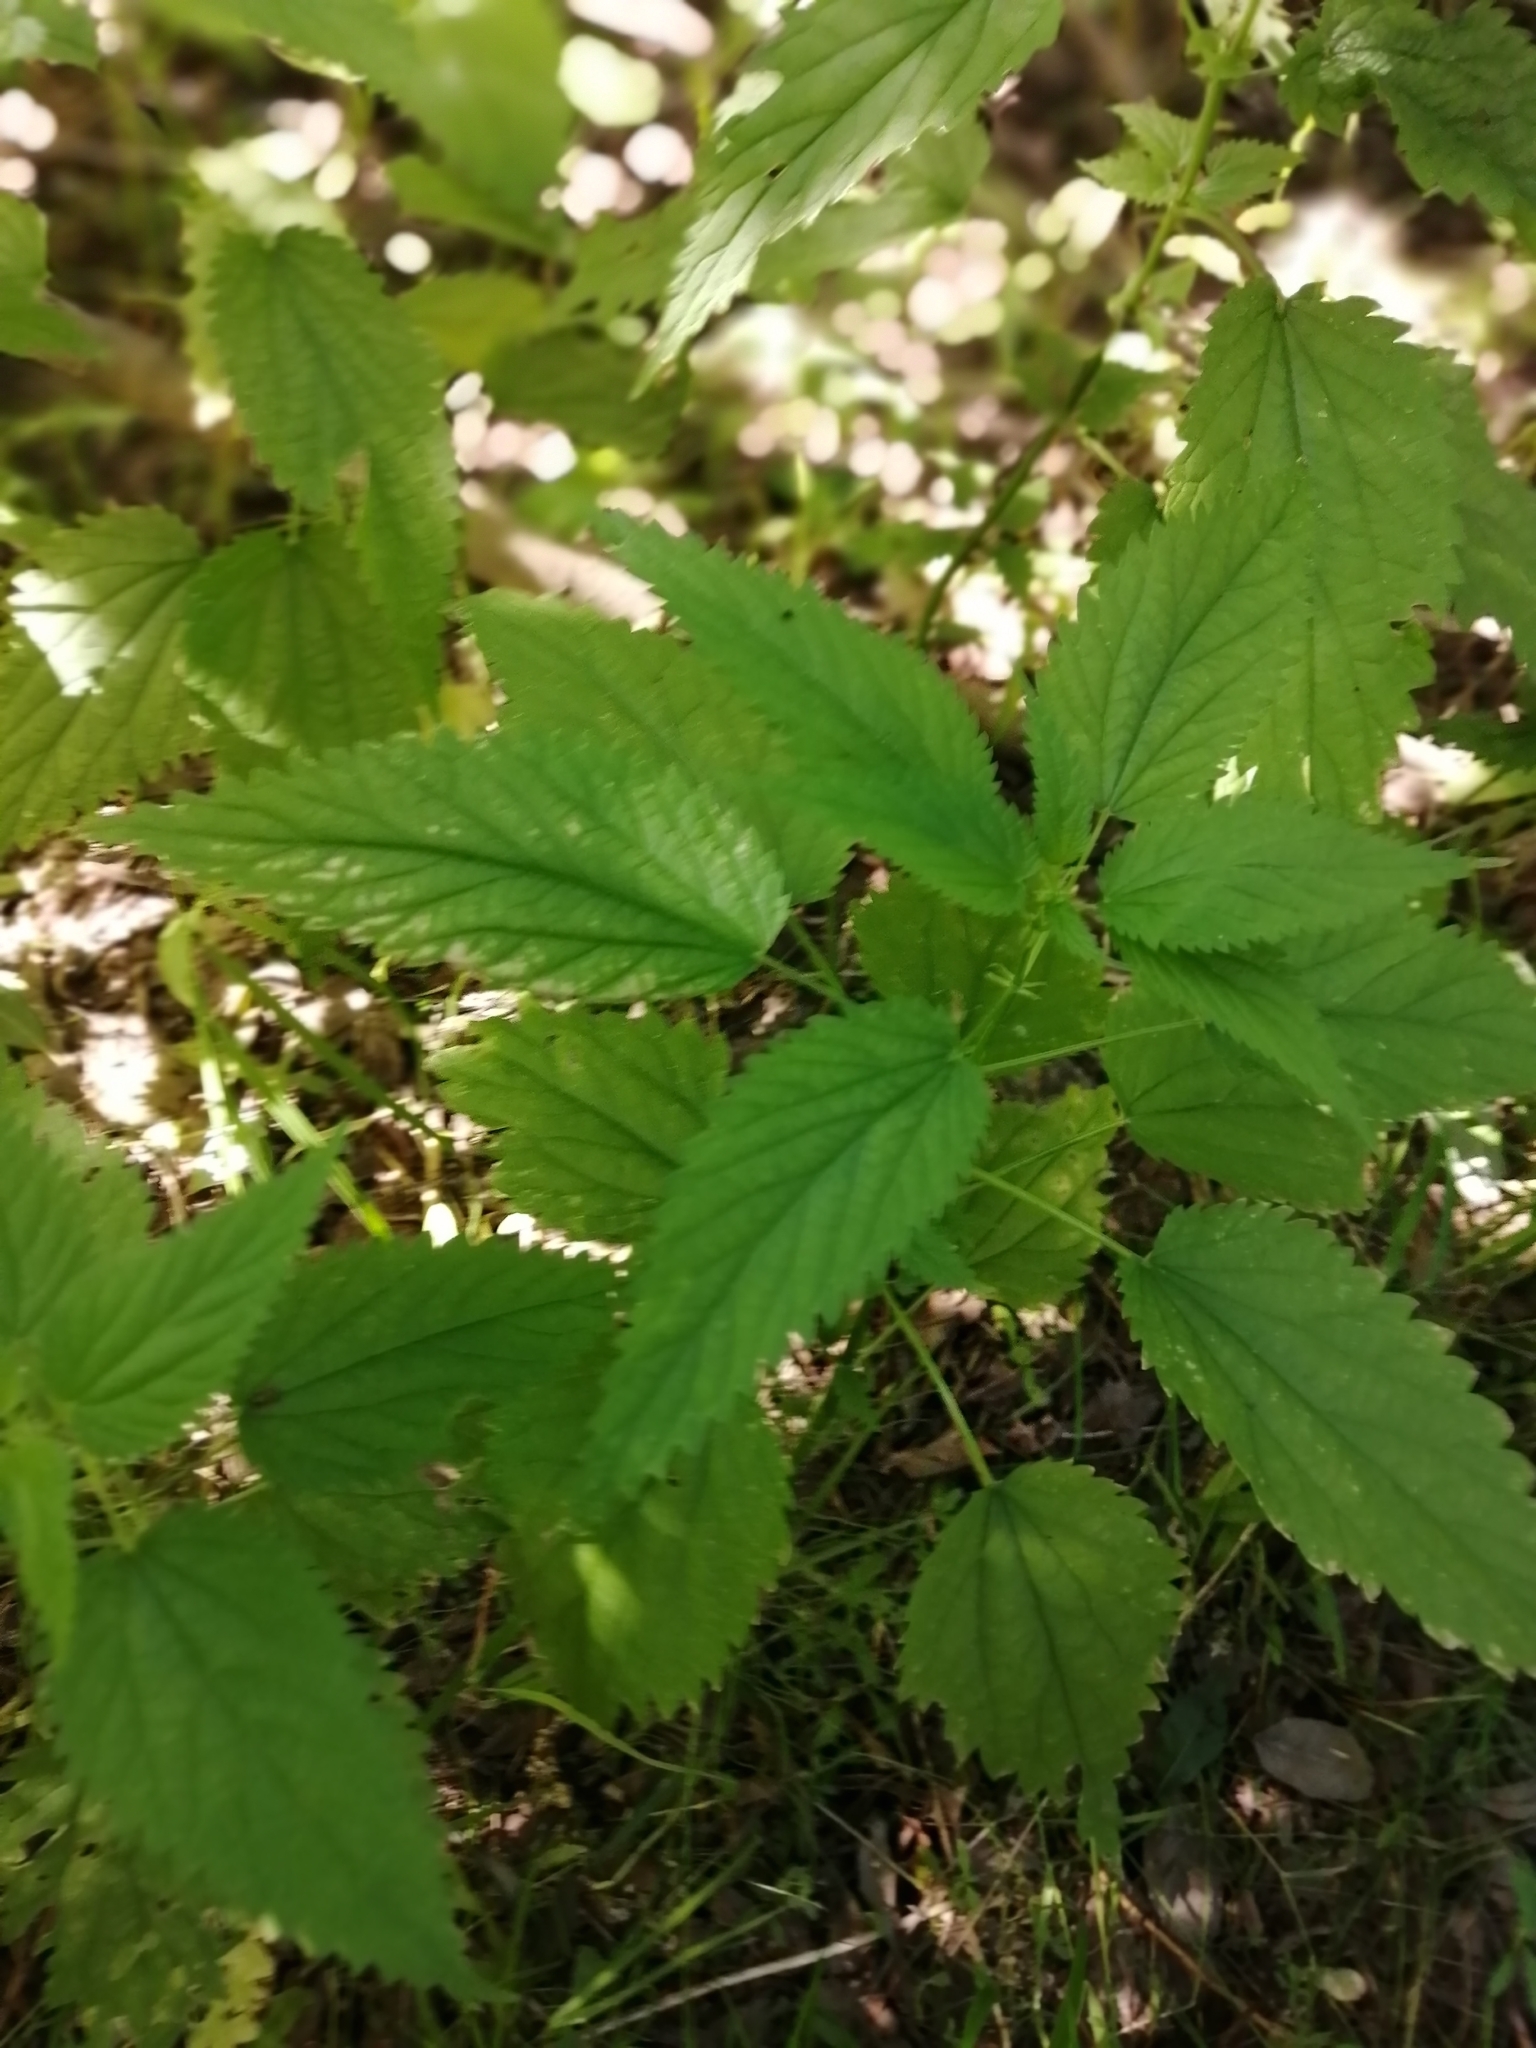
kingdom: Plantae
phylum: Tracheophyta
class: Magnoliopsida
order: Rosales
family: Urticaceae
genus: Urtica
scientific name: Urtica dioica
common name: Common nettle
